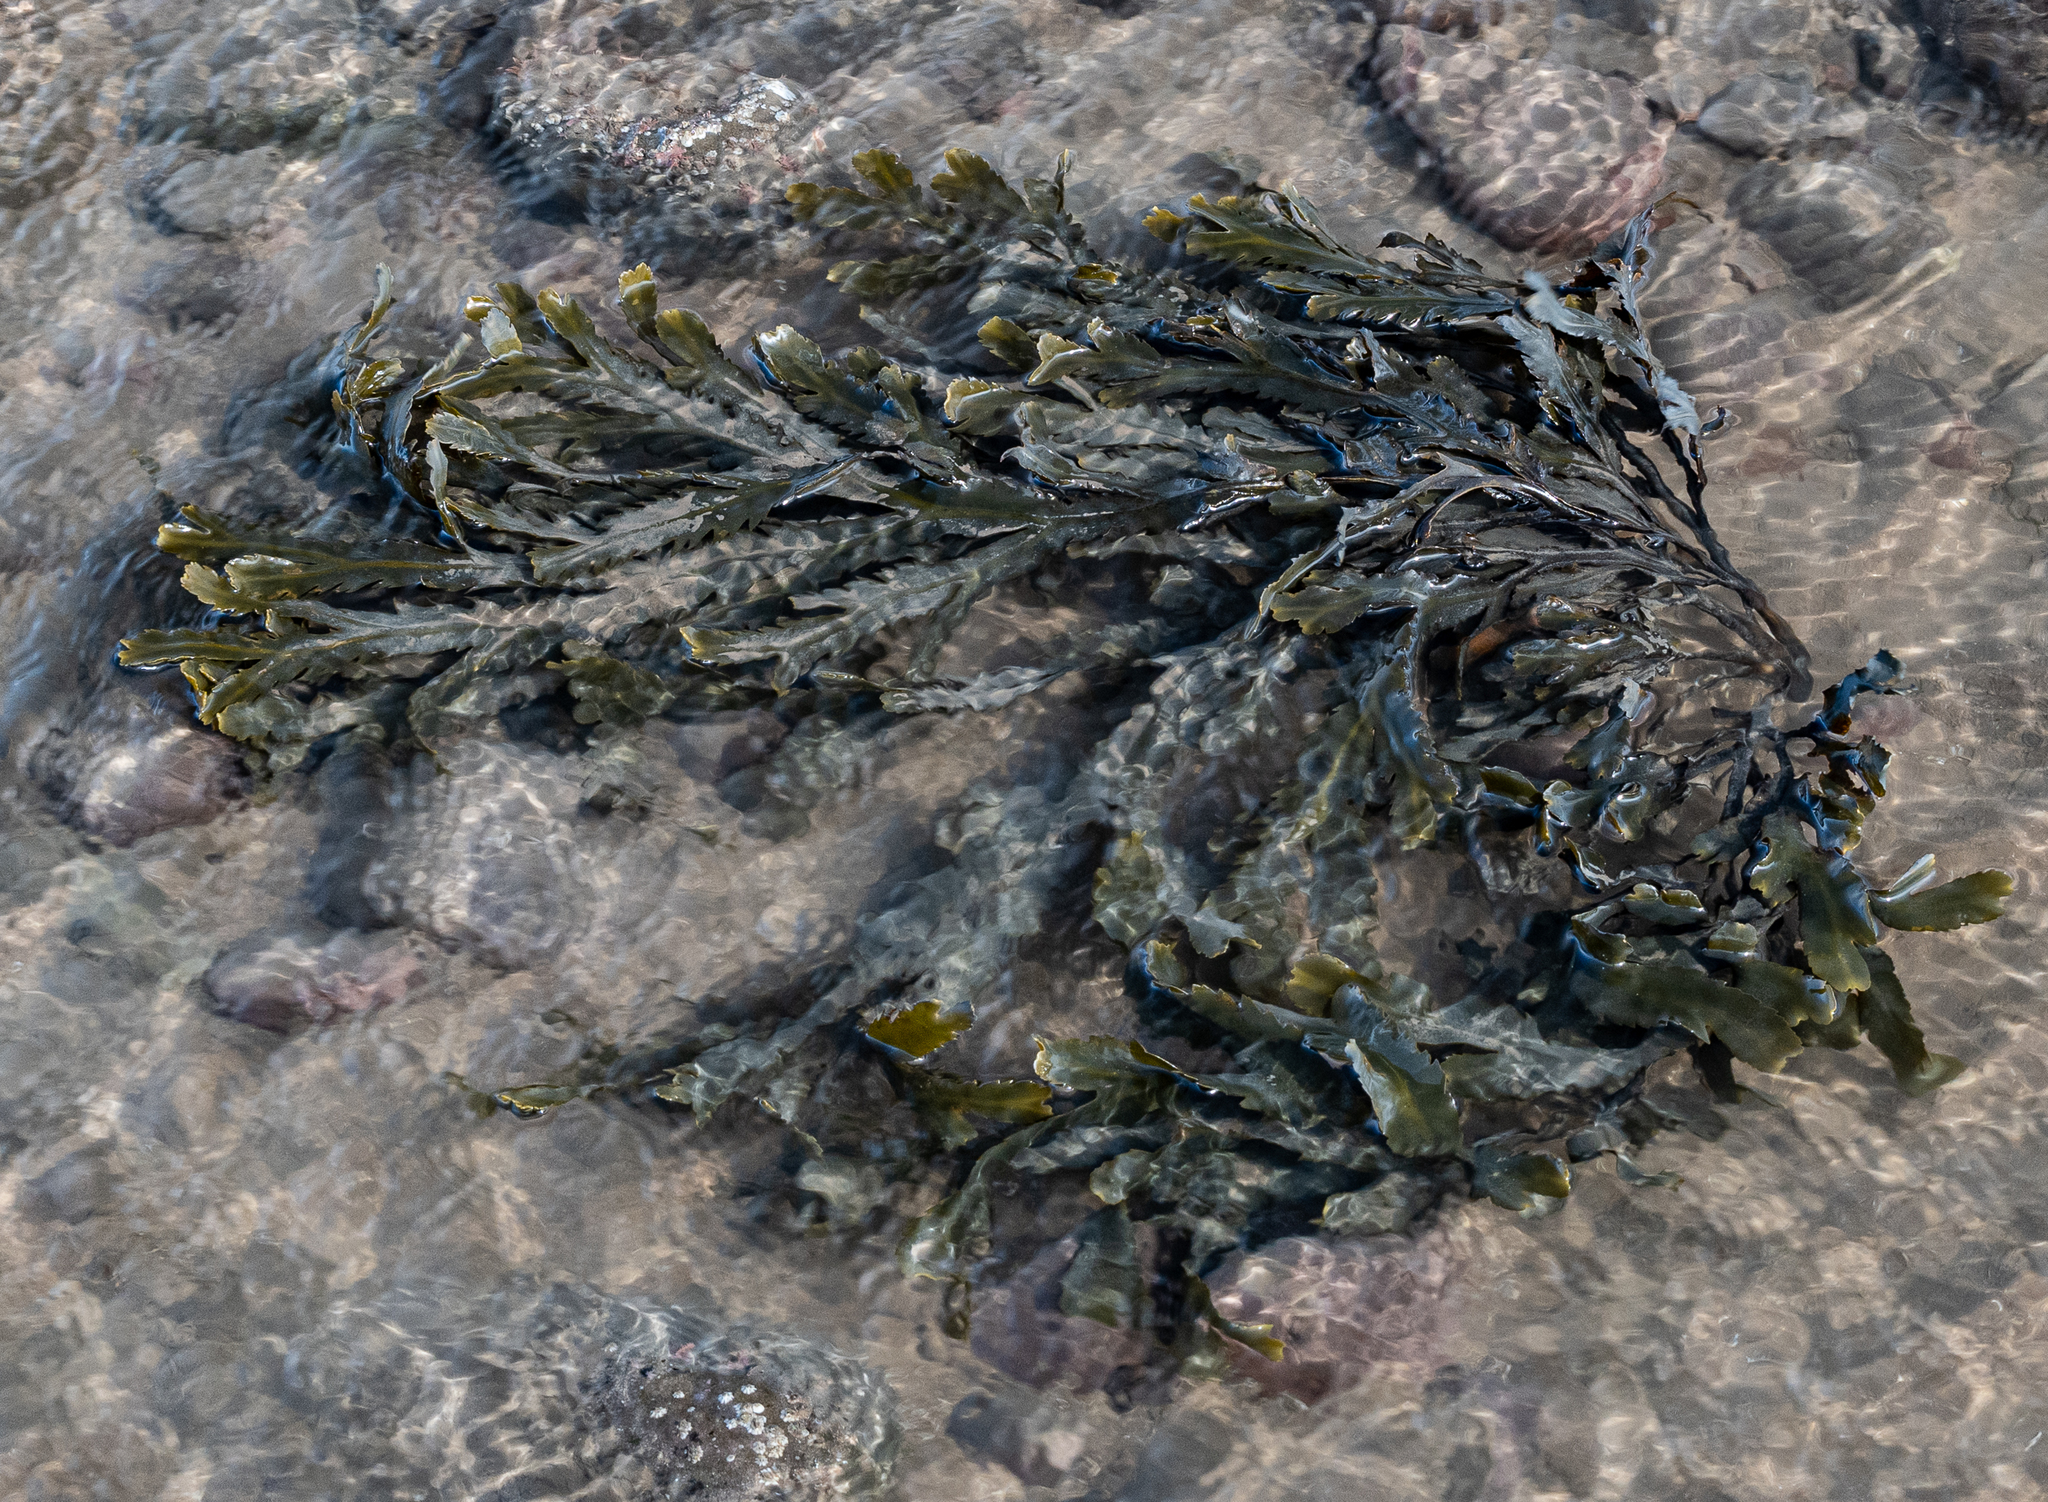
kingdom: Chromista
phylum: Ochrophyta
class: Phaeophyceae
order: Fucales
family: Fucaceae
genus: Fucus
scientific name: Fucus serratus
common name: Toothed wrack
